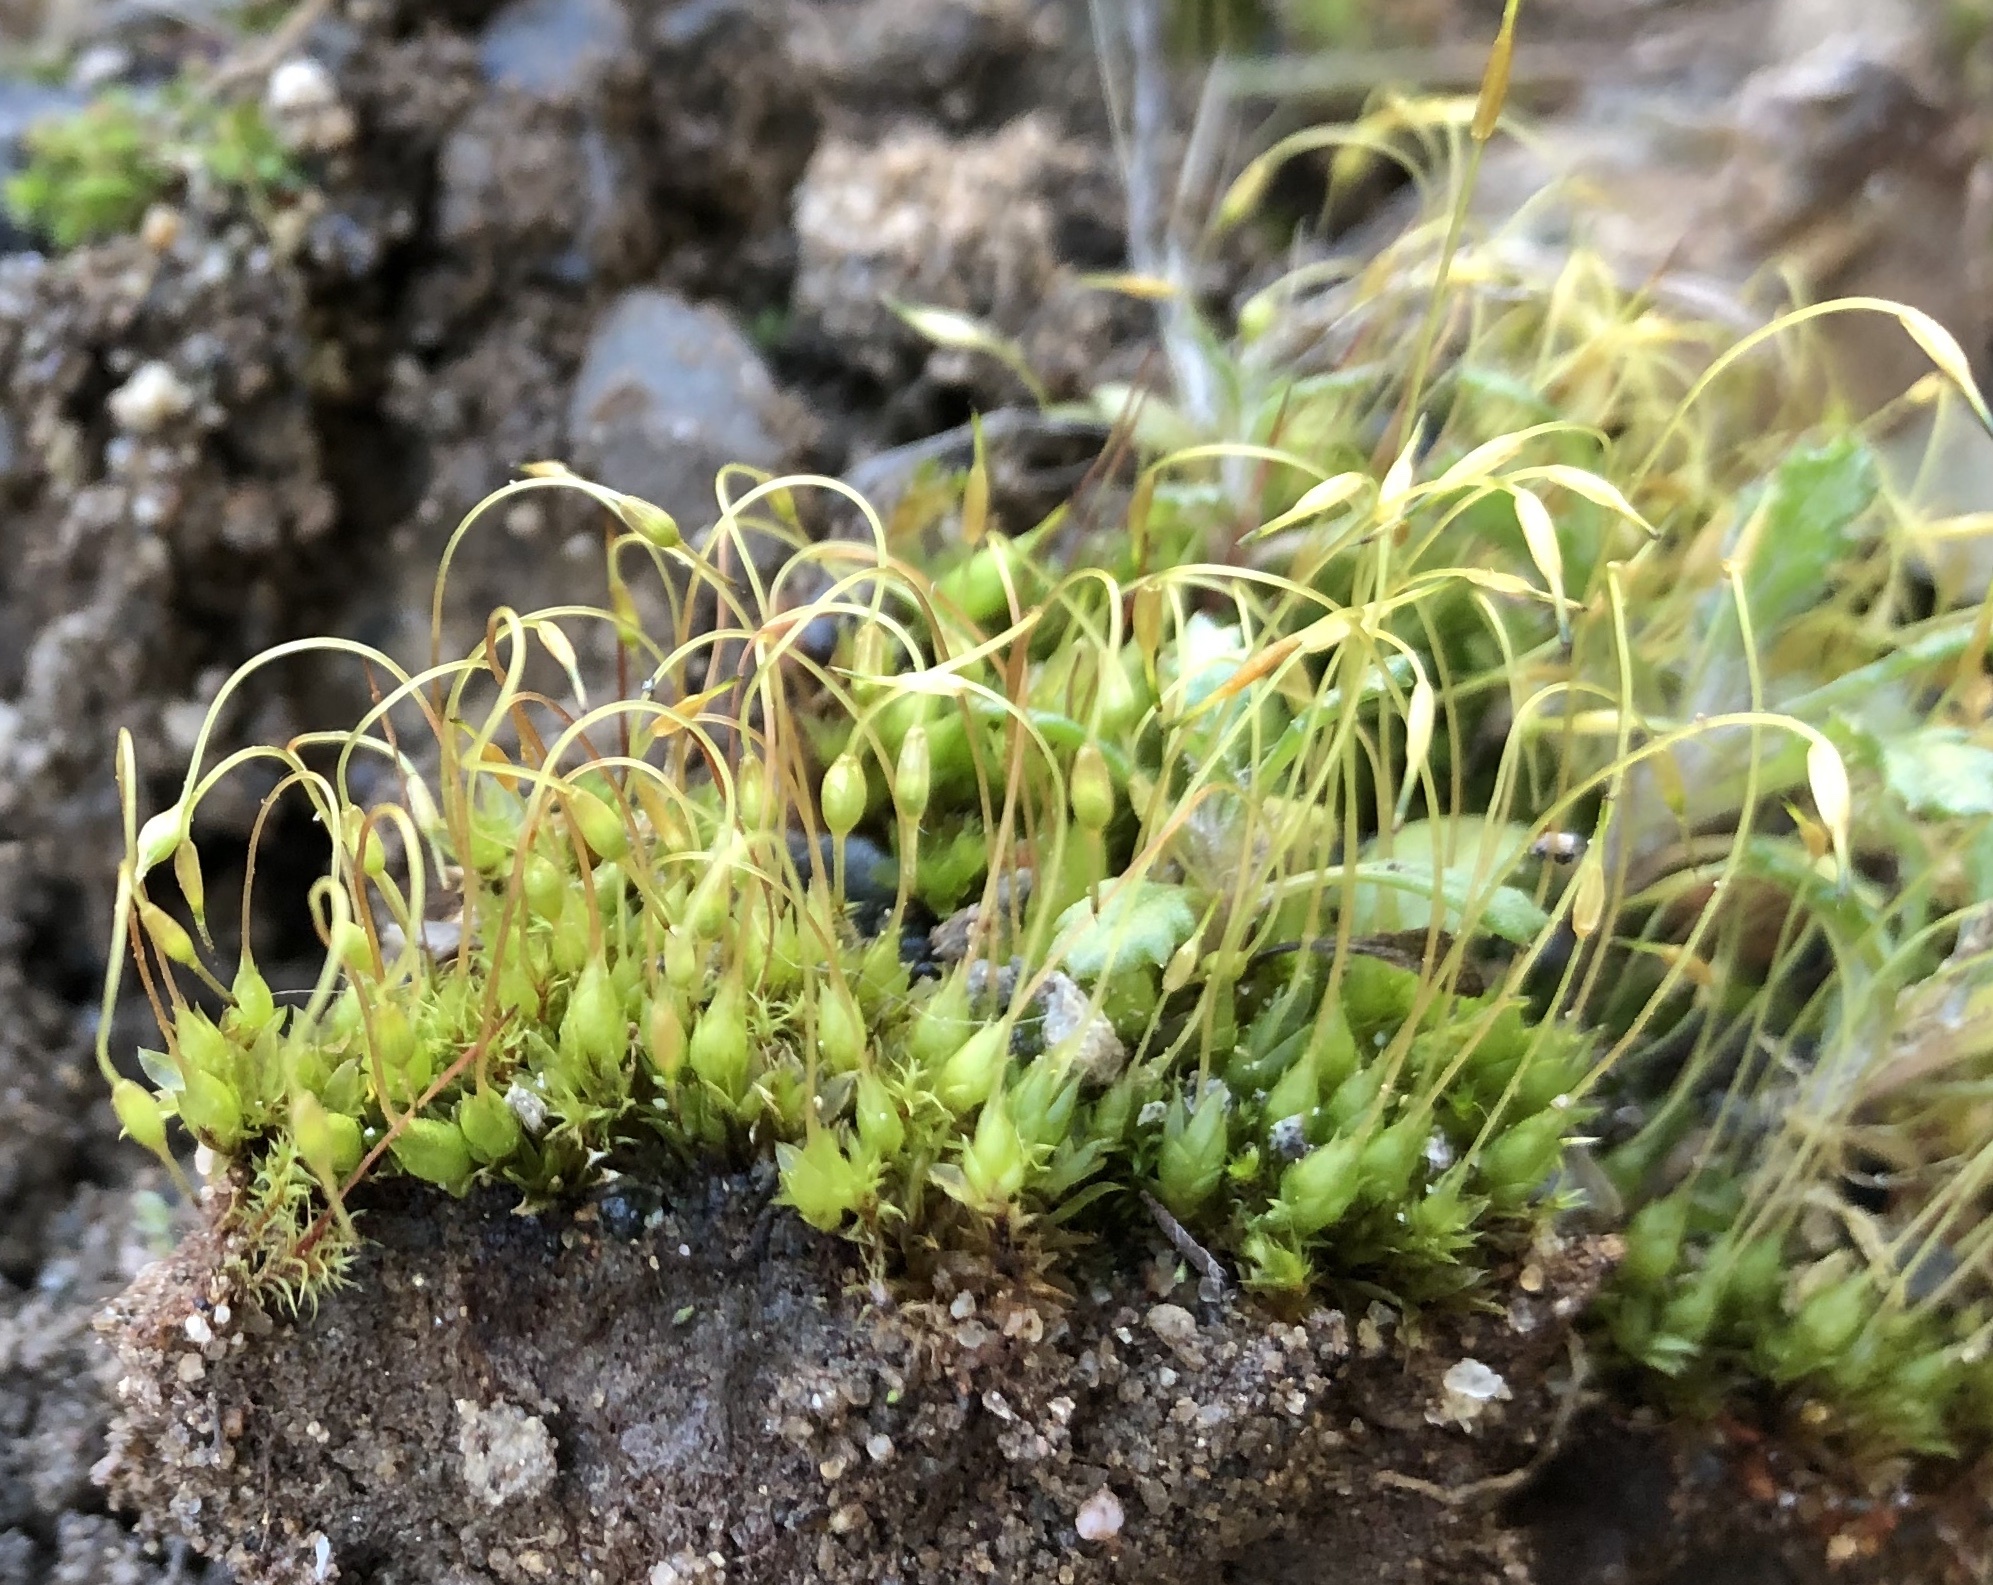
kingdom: Plantae
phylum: Bryophyta
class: Bryopsida
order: Funariales
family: Funariaceae
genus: Funaria
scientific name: Funaria hygrometrica
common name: Common cord moss
